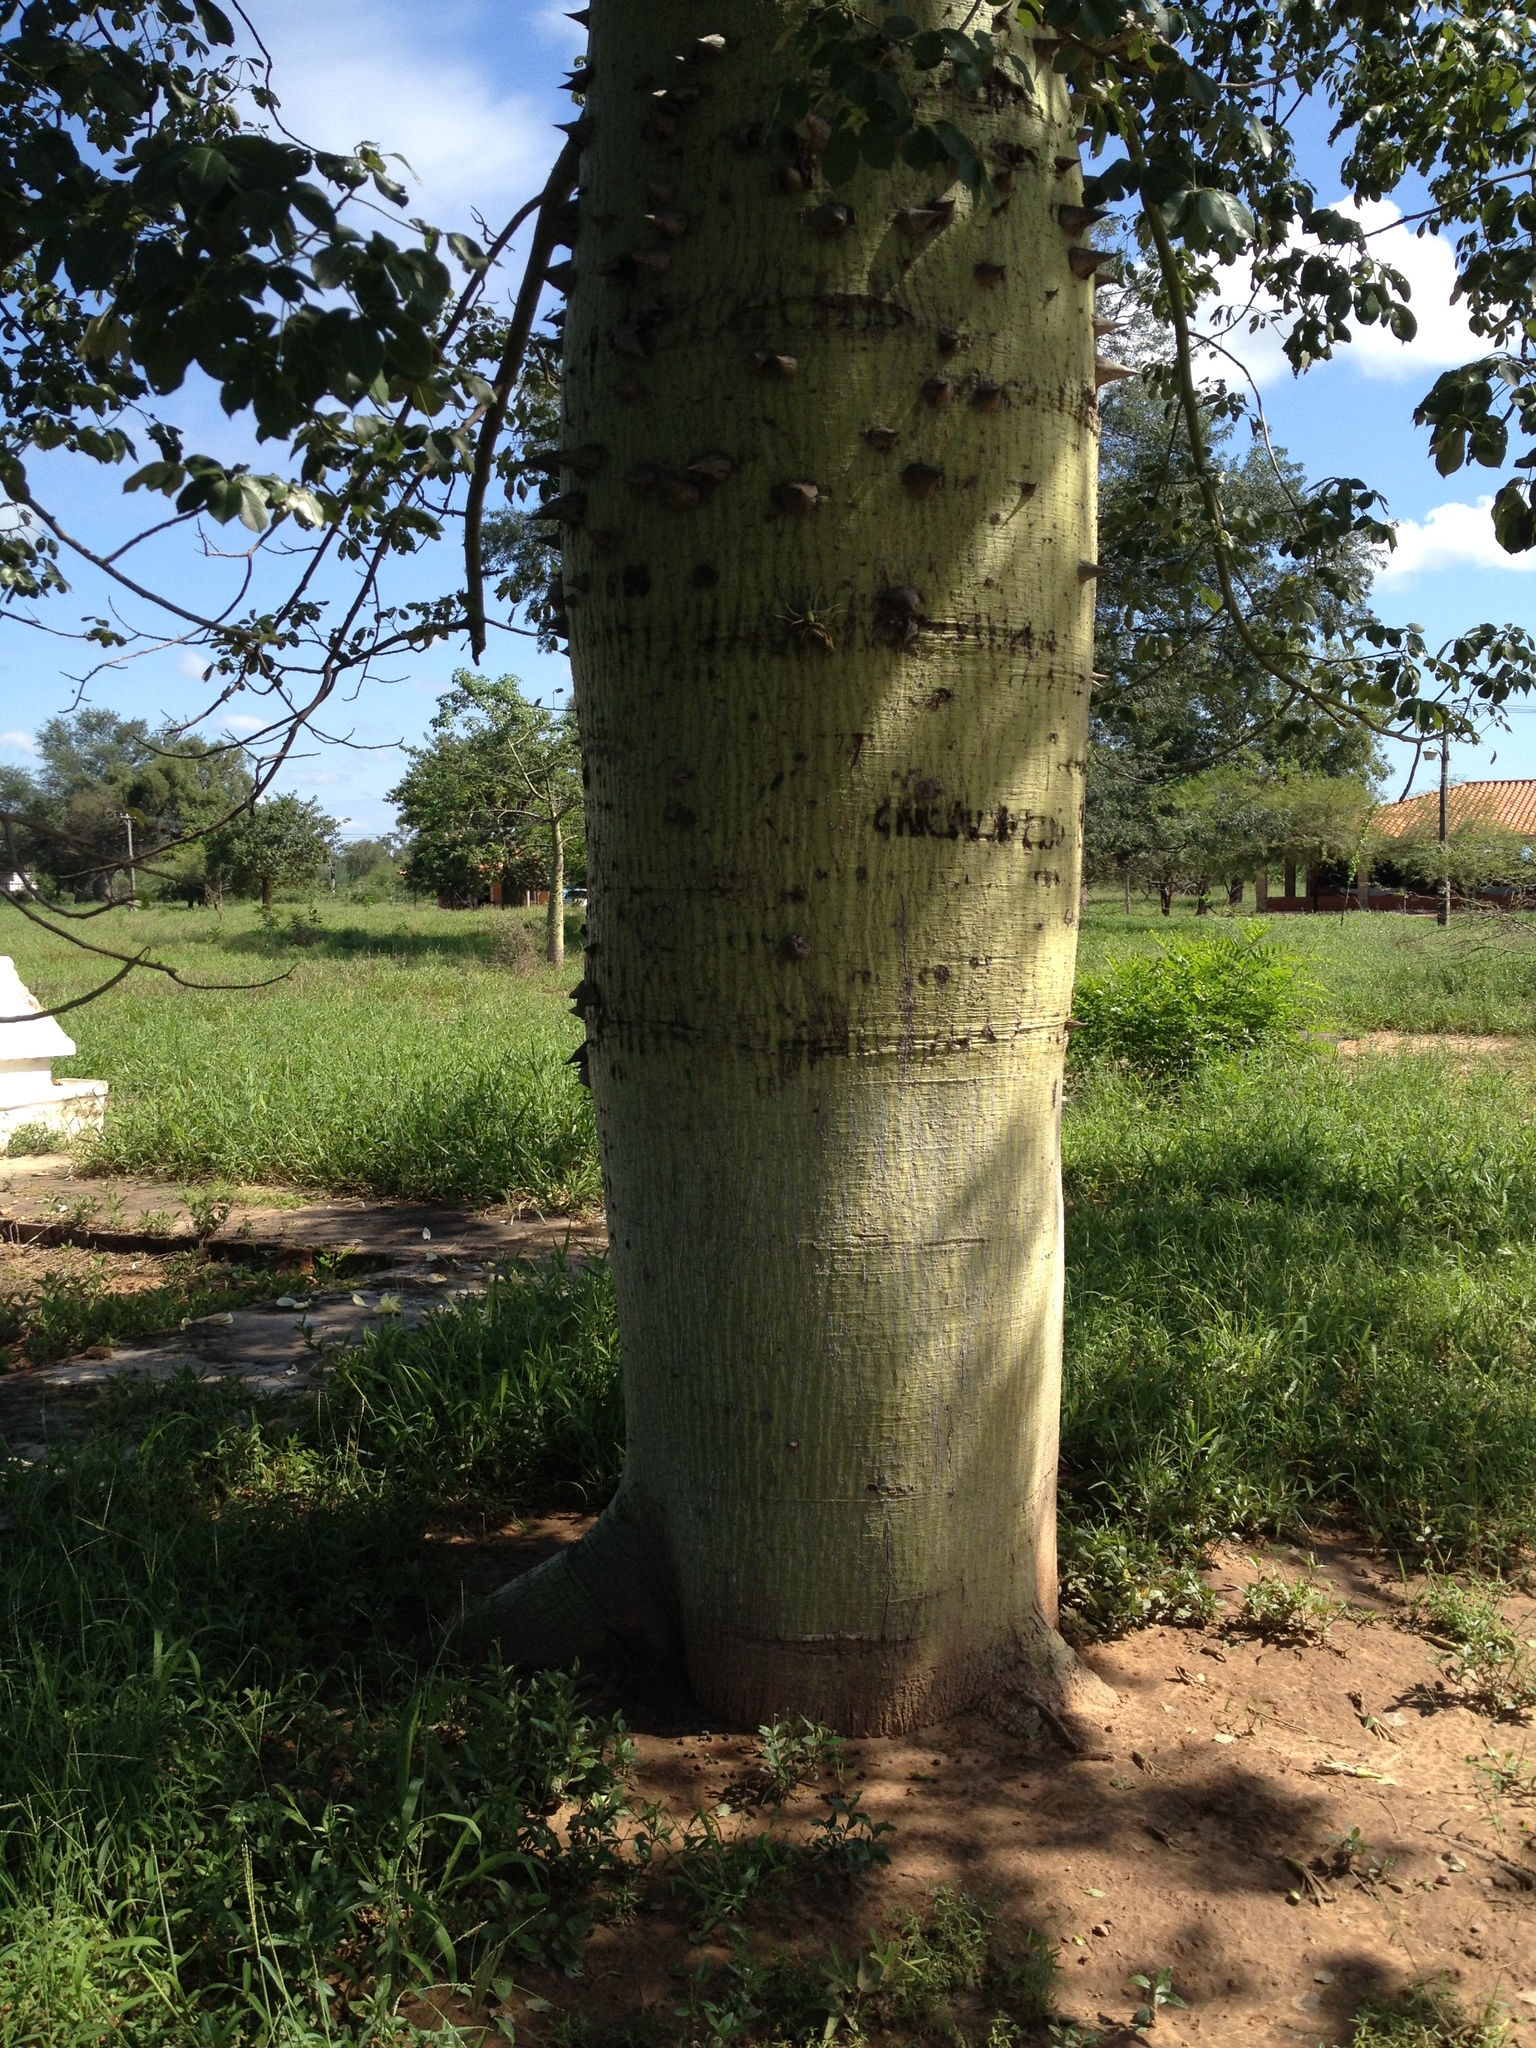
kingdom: Plantae
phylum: Tracheophyta
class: Magnoliopsida
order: Malvales
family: Malvaceae
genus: Ceiba
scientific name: Ceiba chodatii
